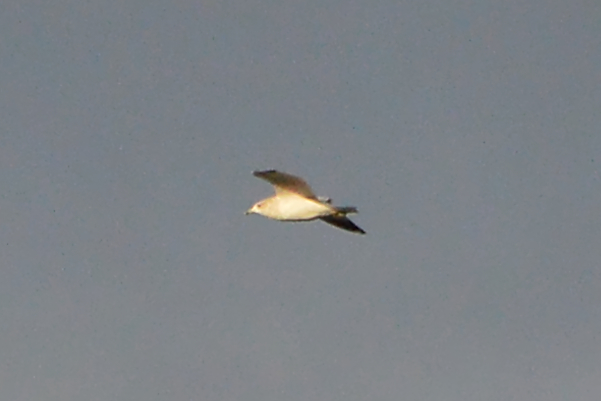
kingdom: Animalia
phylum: Chordata
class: Aves
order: Charadriiformes
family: Laridae
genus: Larus
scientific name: Larus delawarensis
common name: Ring-billed gull
